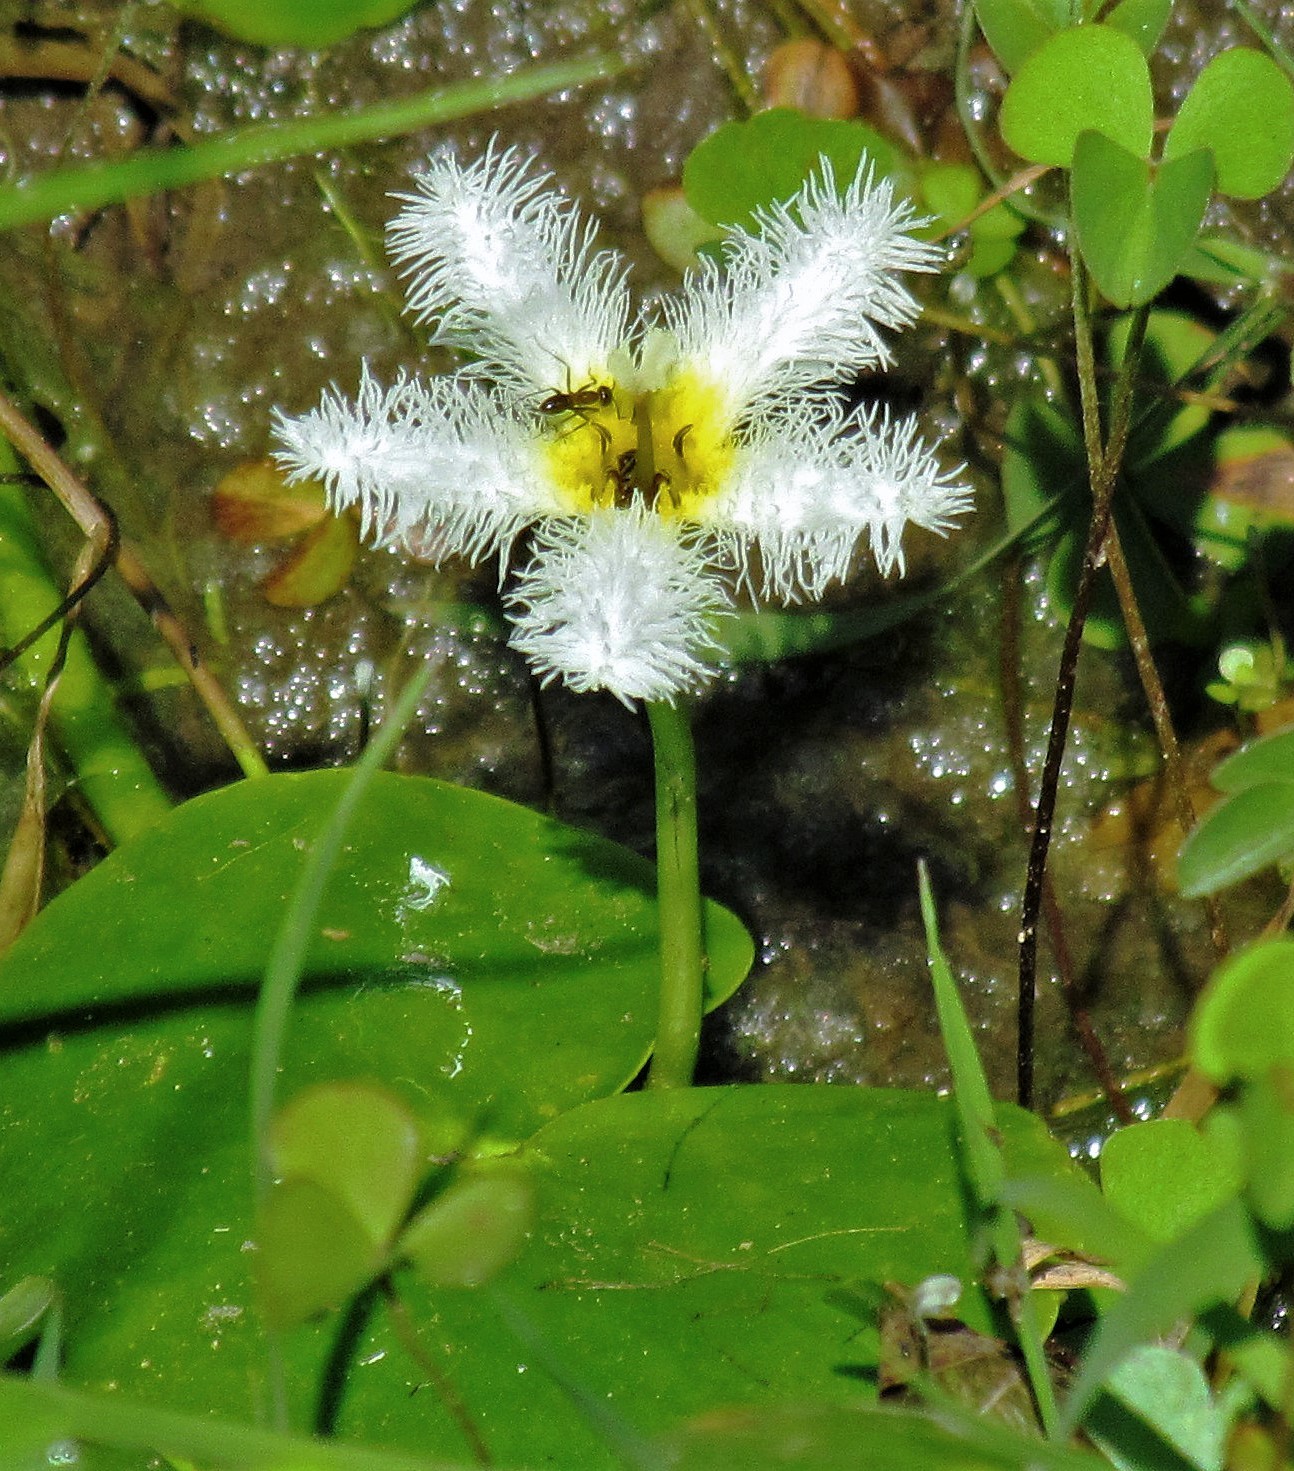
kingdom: Plantae
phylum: Tracheophyta
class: Magnoliopsida
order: Asterales
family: Menyanthaceae
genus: Nymphoides
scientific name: Nymphoides humboldtiana
